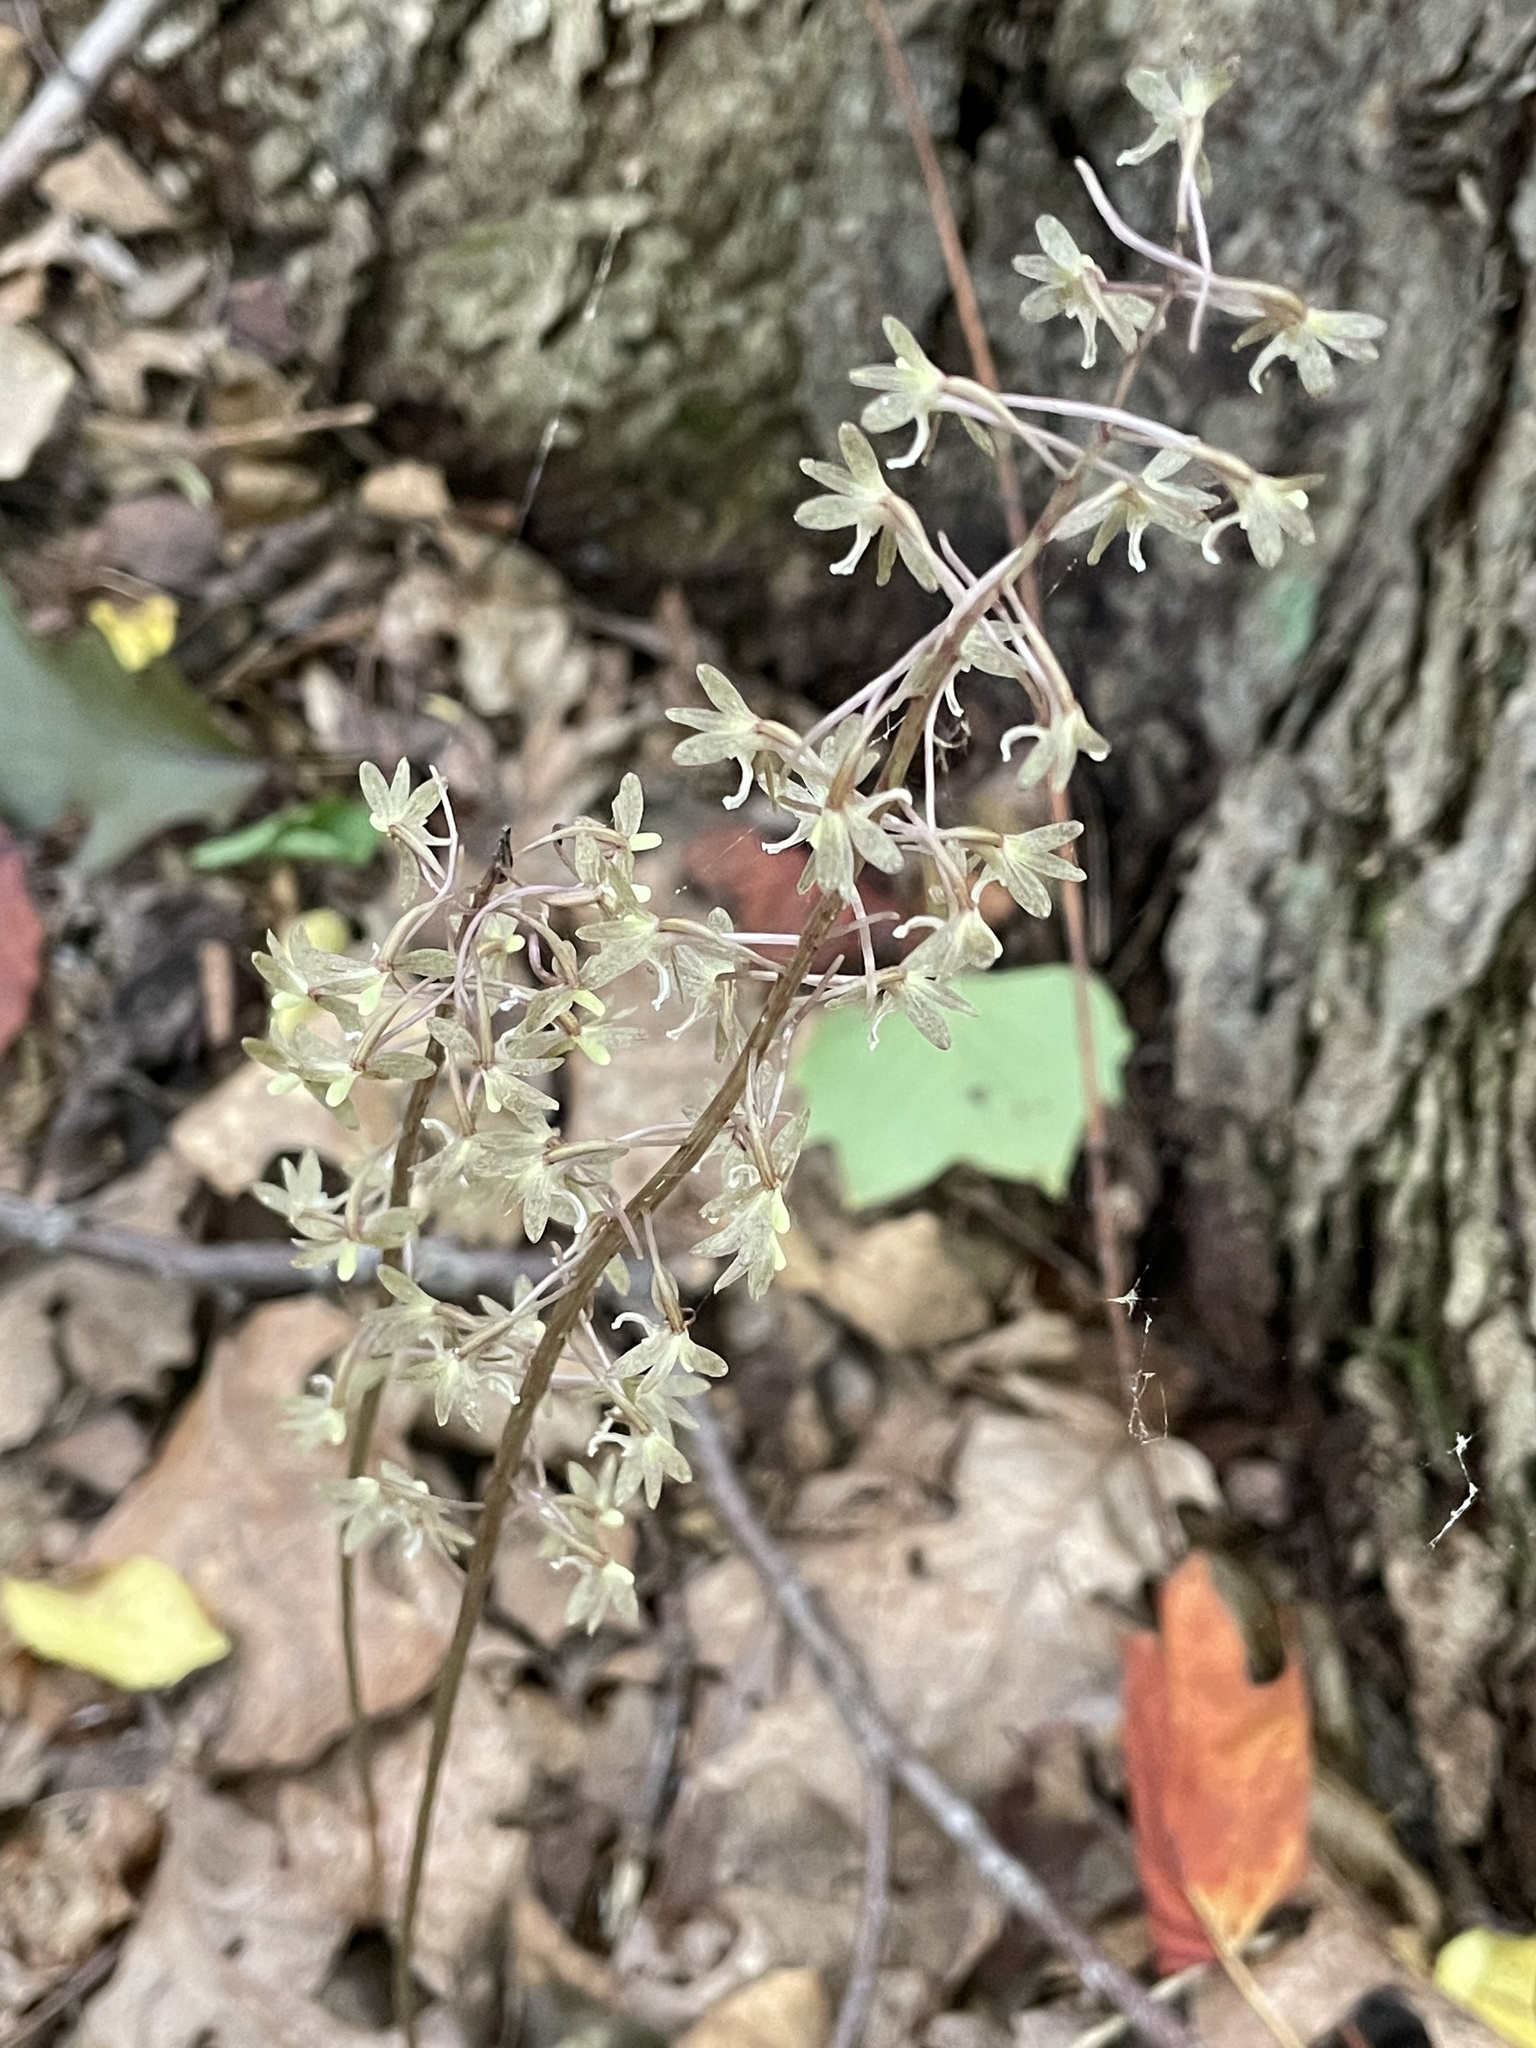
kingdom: Plantae
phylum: Tracheophyta
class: Liliopsida
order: Asparagales
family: Orchidaceae
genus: Tipularia
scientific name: Tipularia discolor
